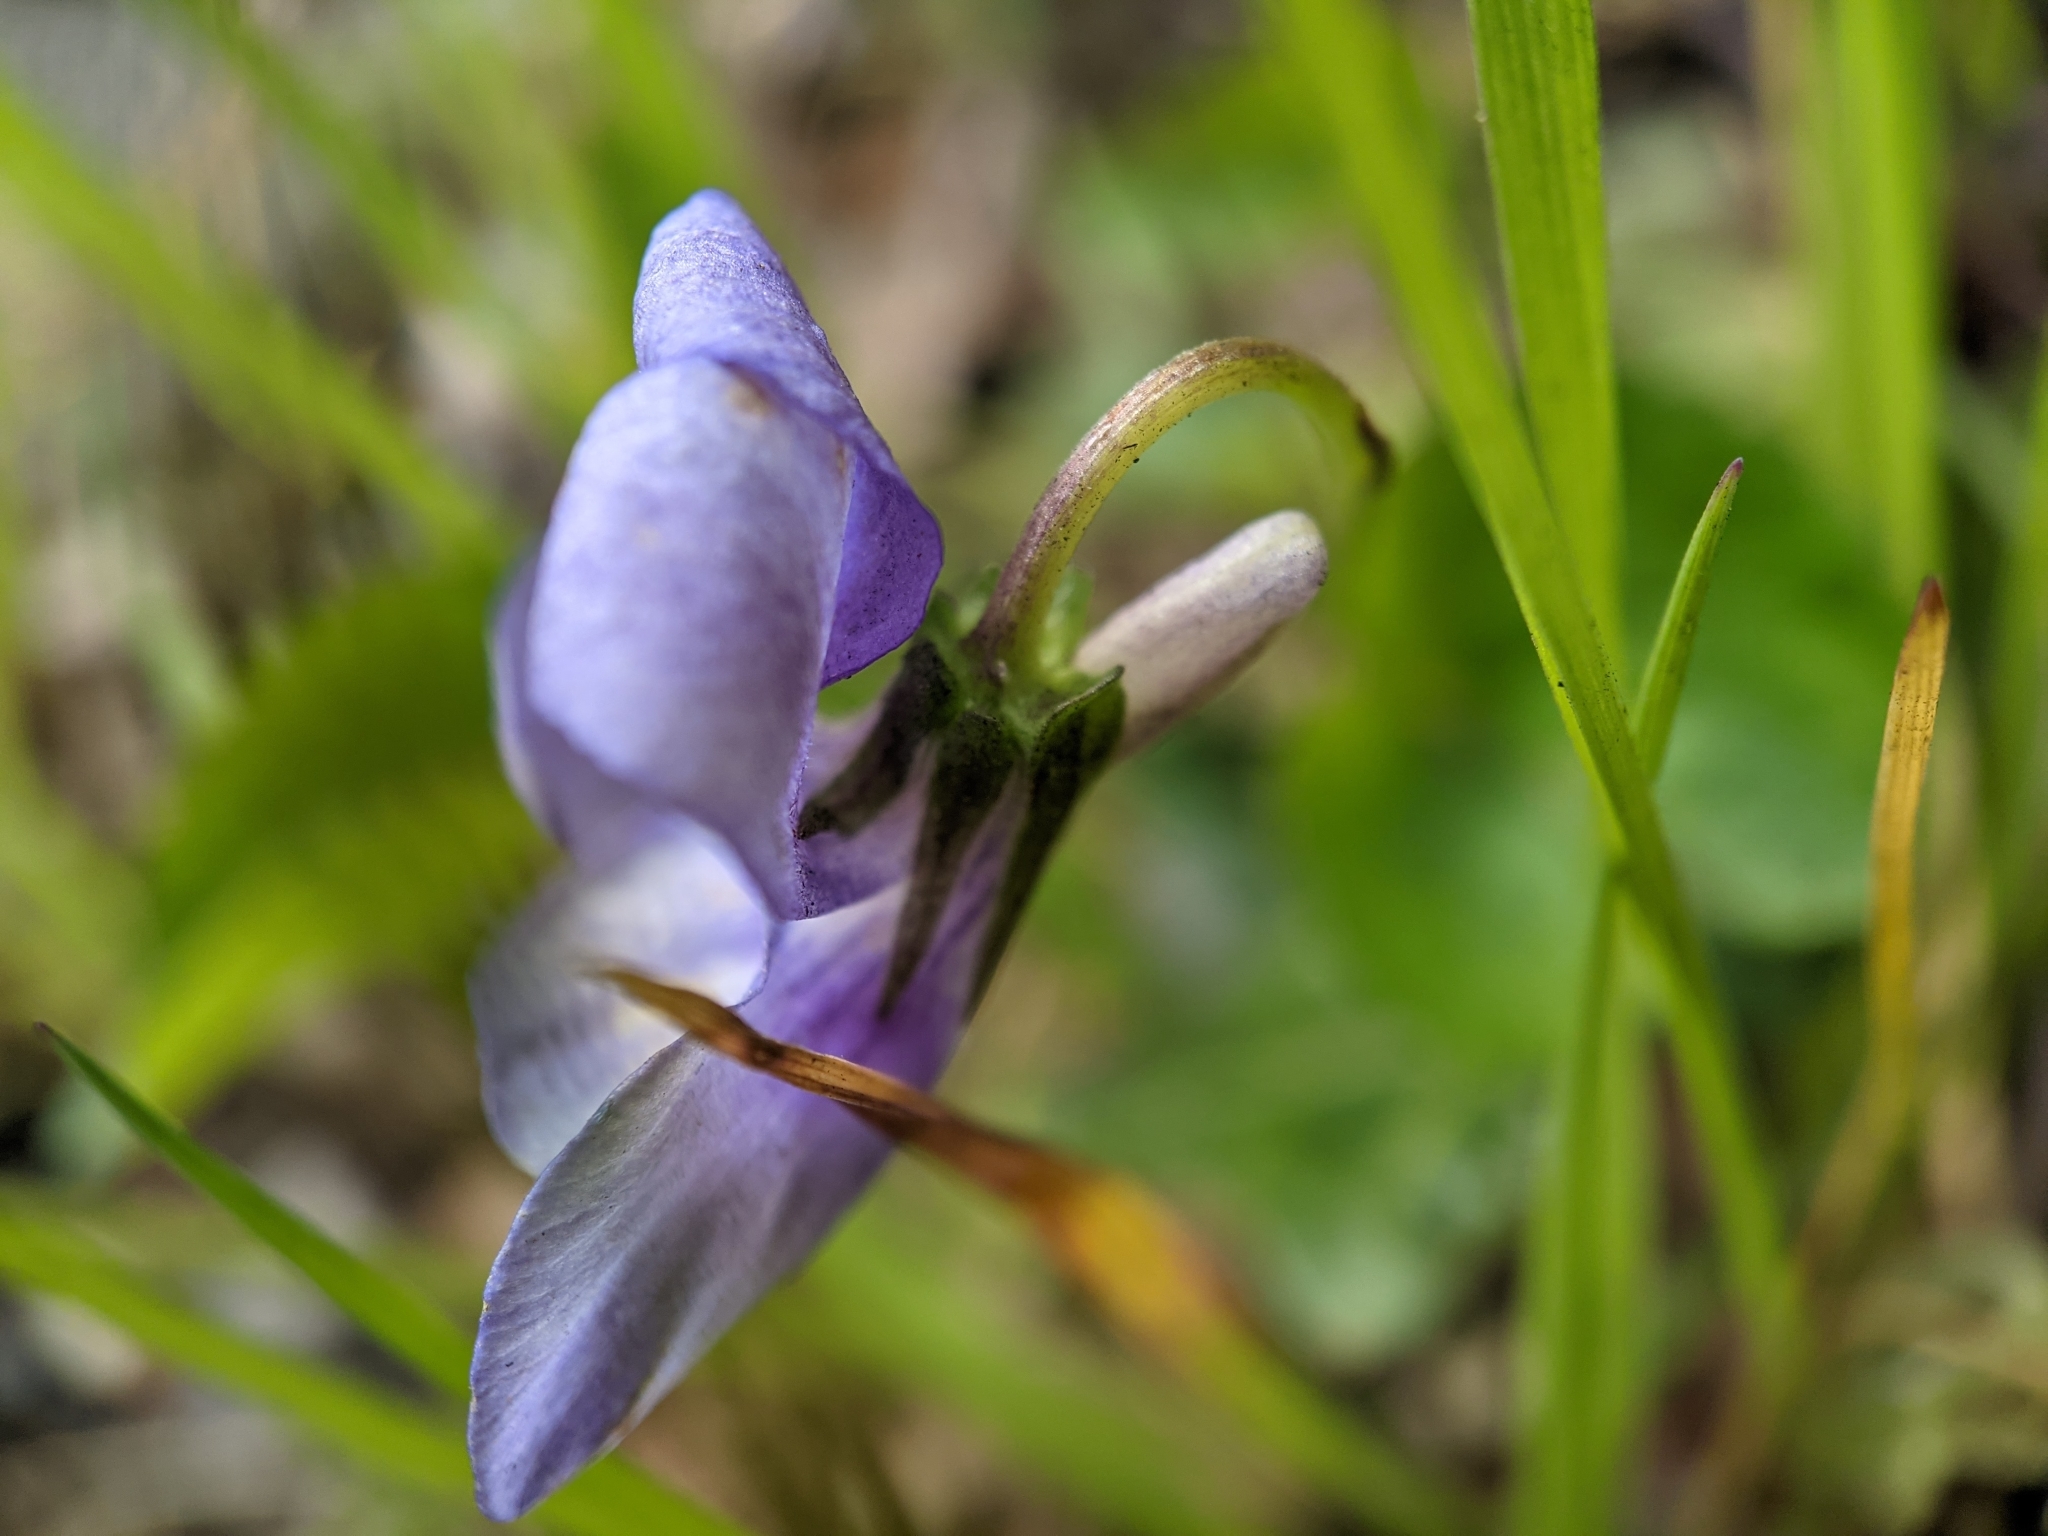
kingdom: Plantae
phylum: Tracheophyta
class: Magnoliopsida
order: Malpighiales
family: Violaceae
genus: Viola
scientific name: Viola riviniana
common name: Common dog-violet
